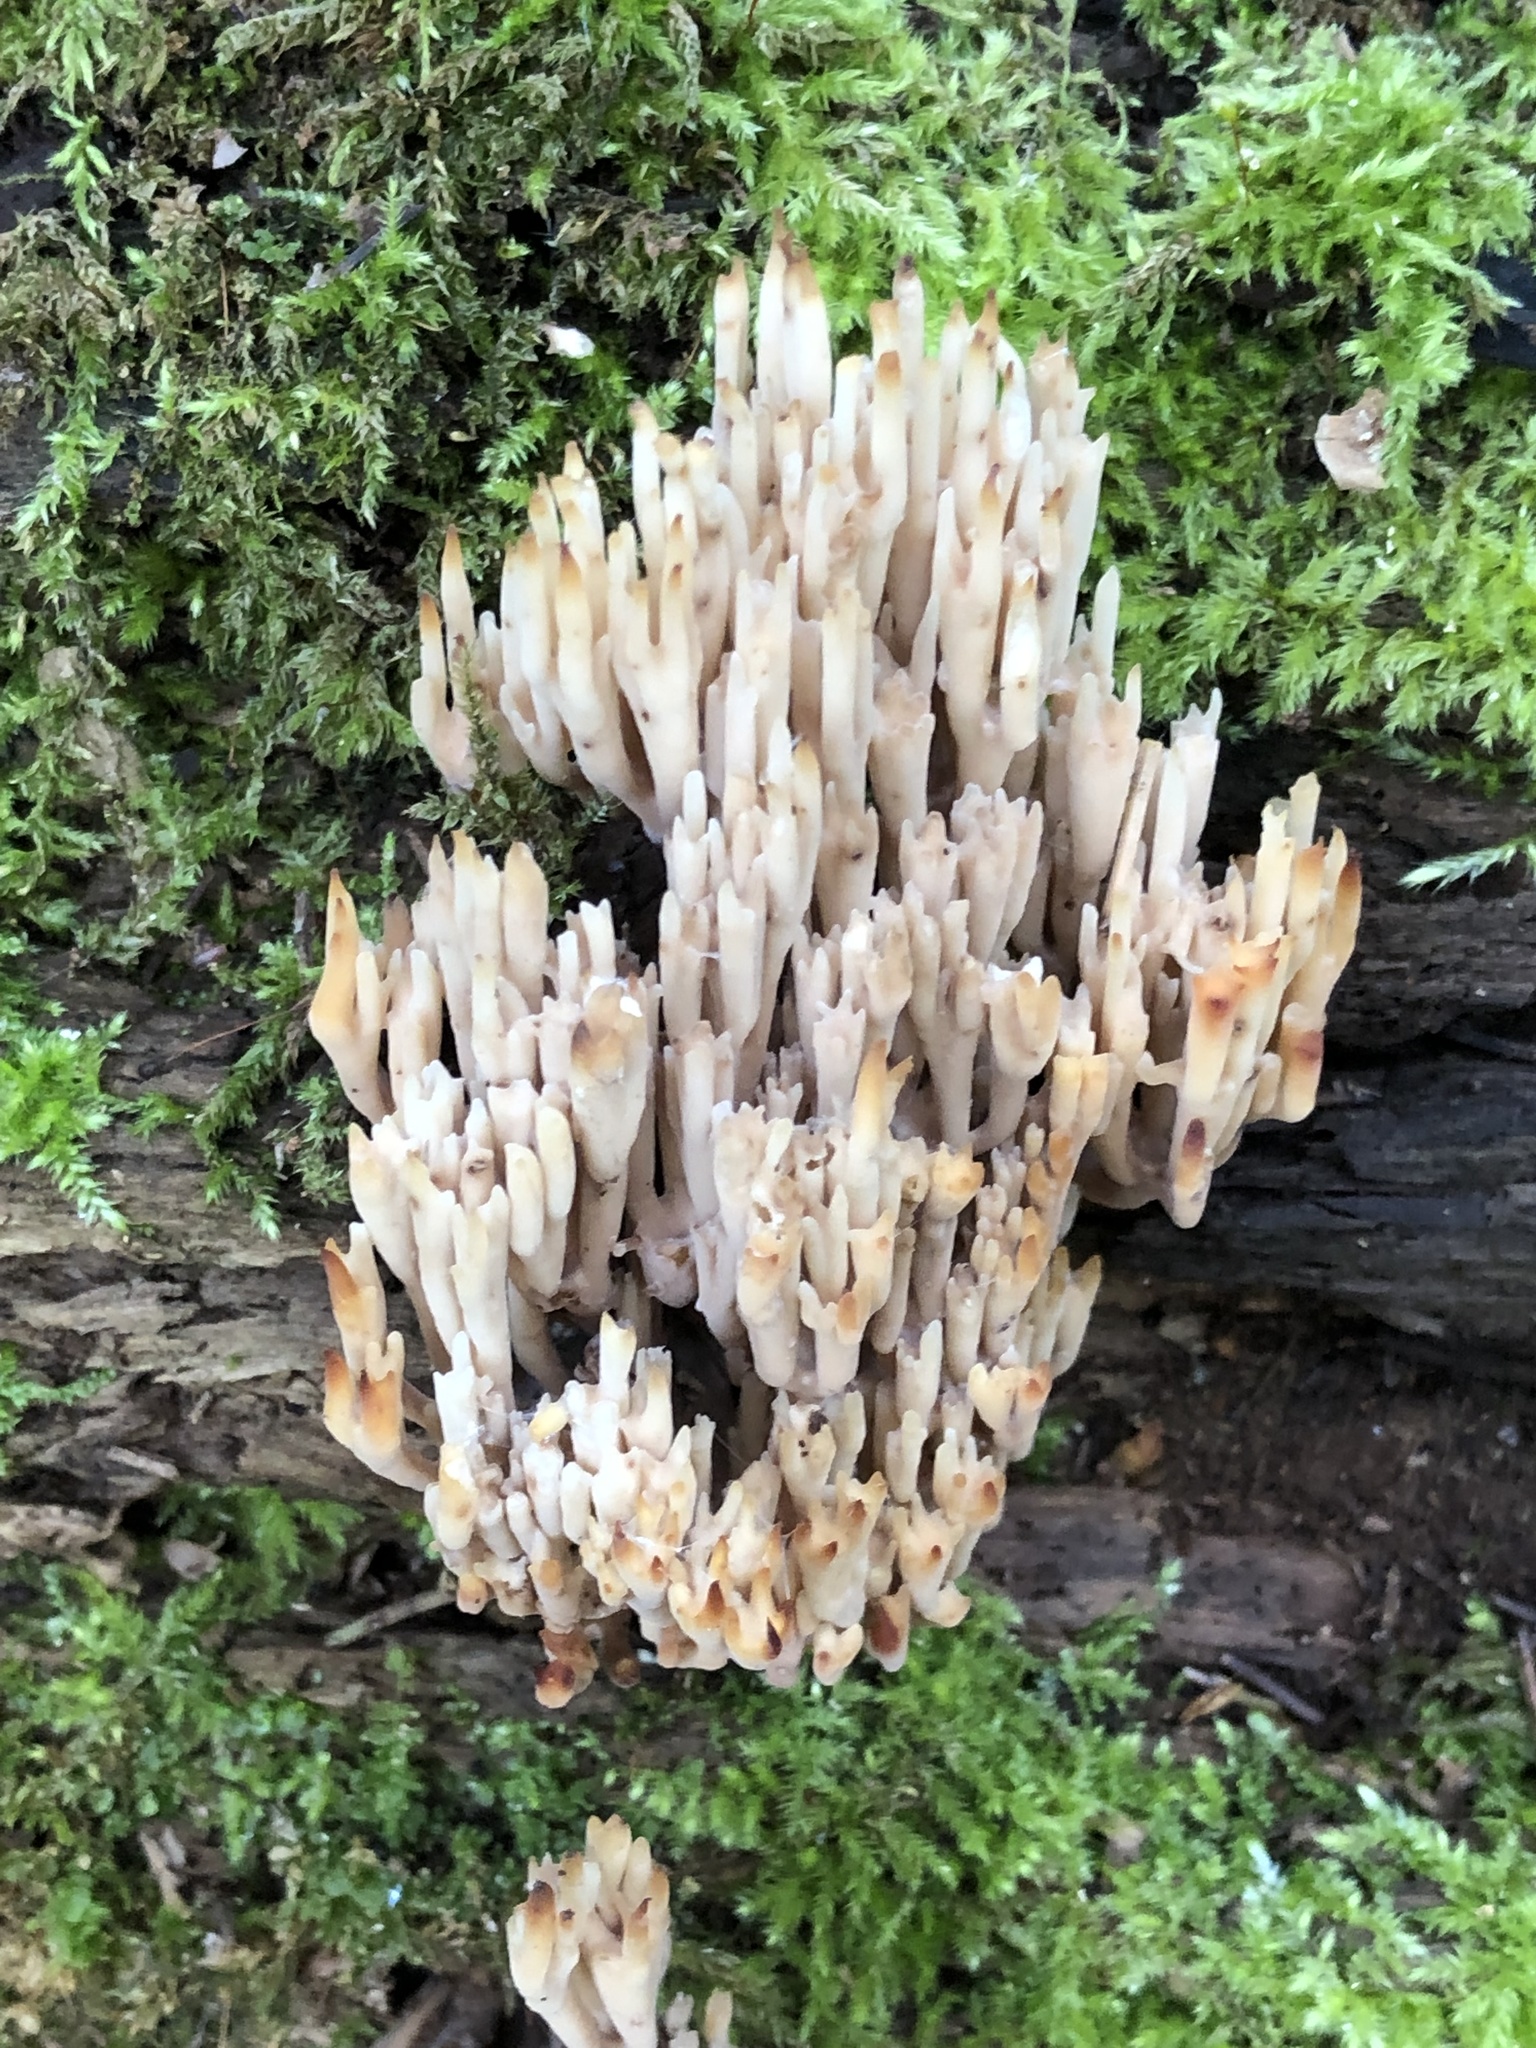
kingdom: Fungi
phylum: Basidiomycota
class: Agaricomycetes
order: Russulales
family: Auriscalpiaceae
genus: Artomyces
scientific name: Artomyces pyxidatus
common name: Crown-tipped coral fungus
